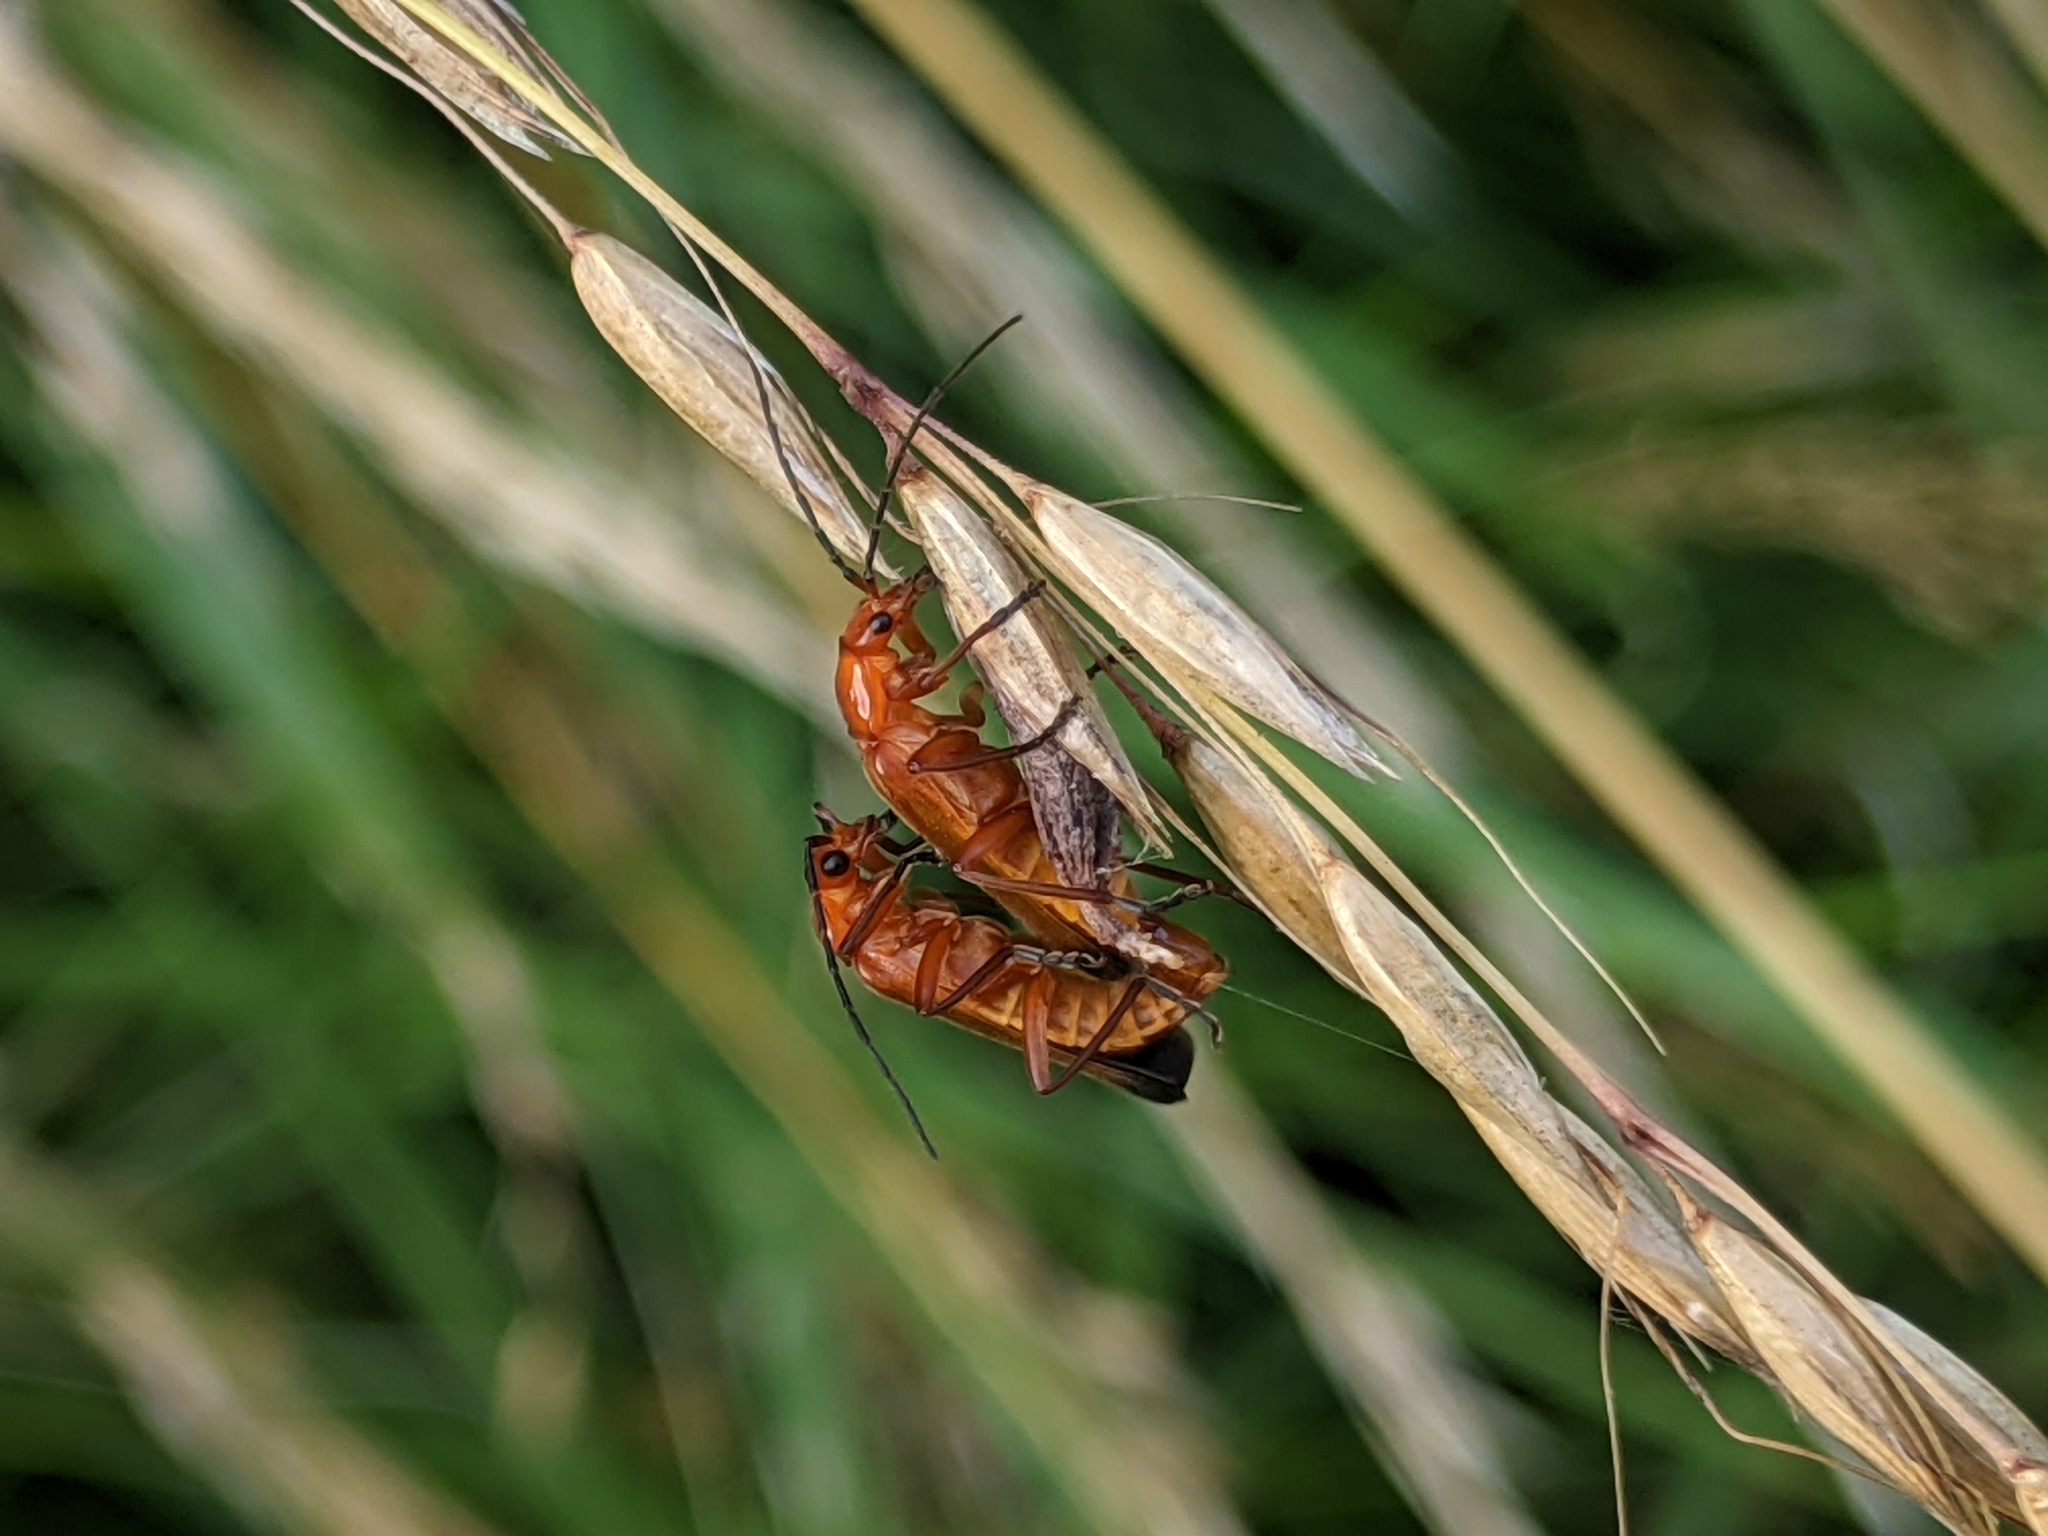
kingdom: Animalia
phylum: Arthropoda
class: Insecta
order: Coleoptera
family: Cantharidae
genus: Rhagonycha
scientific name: Rhagonycha fulva
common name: Common red soldier beetle
